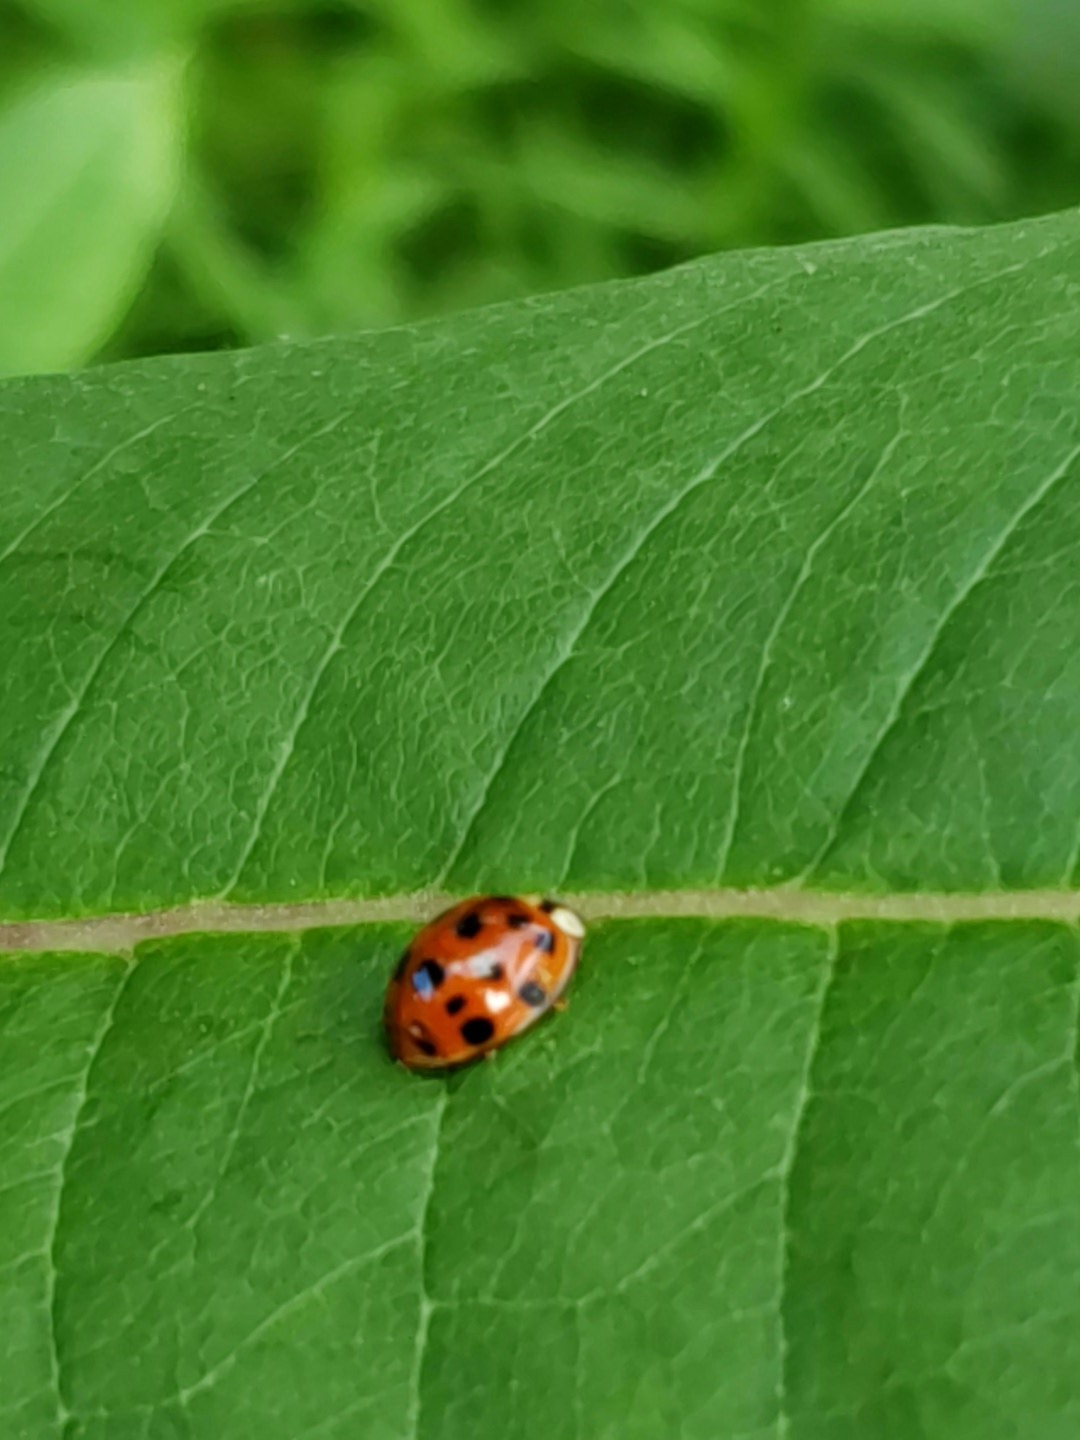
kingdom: Animalia
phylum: Arthropoda
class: Insecta
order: Coleoptera
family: Coccinellidae
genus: Harmonia
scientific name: Harmonia axyridis
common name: Harlequin ladybird
